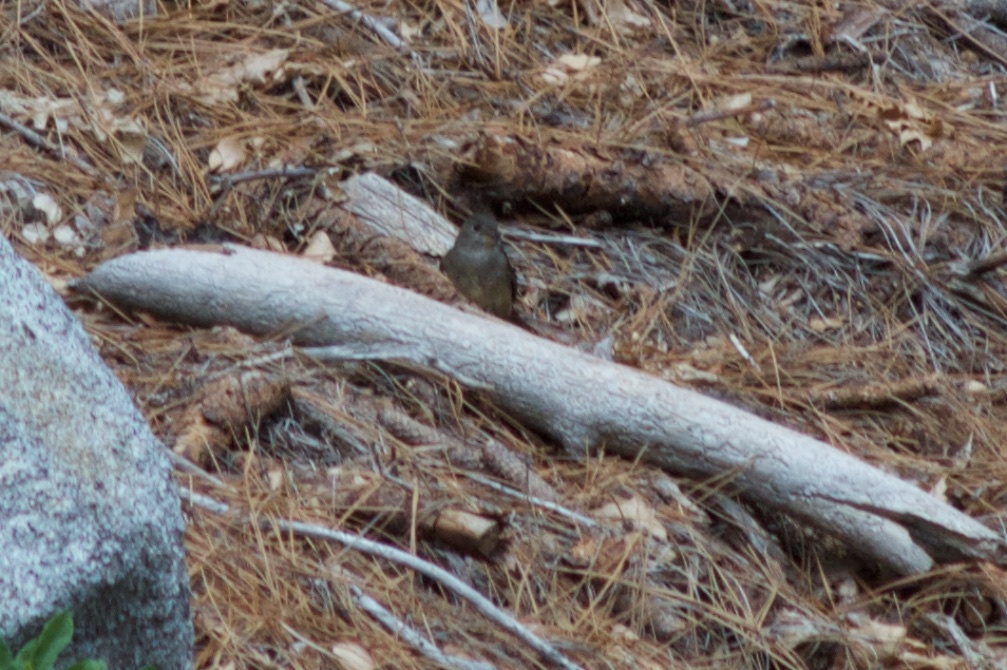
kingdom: Animalia
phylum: Chordata
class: Aves
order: Passeriformes
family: Tyrannidae
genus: Contopus
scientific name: Contopus sordidulus
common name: Western wood-pewee
